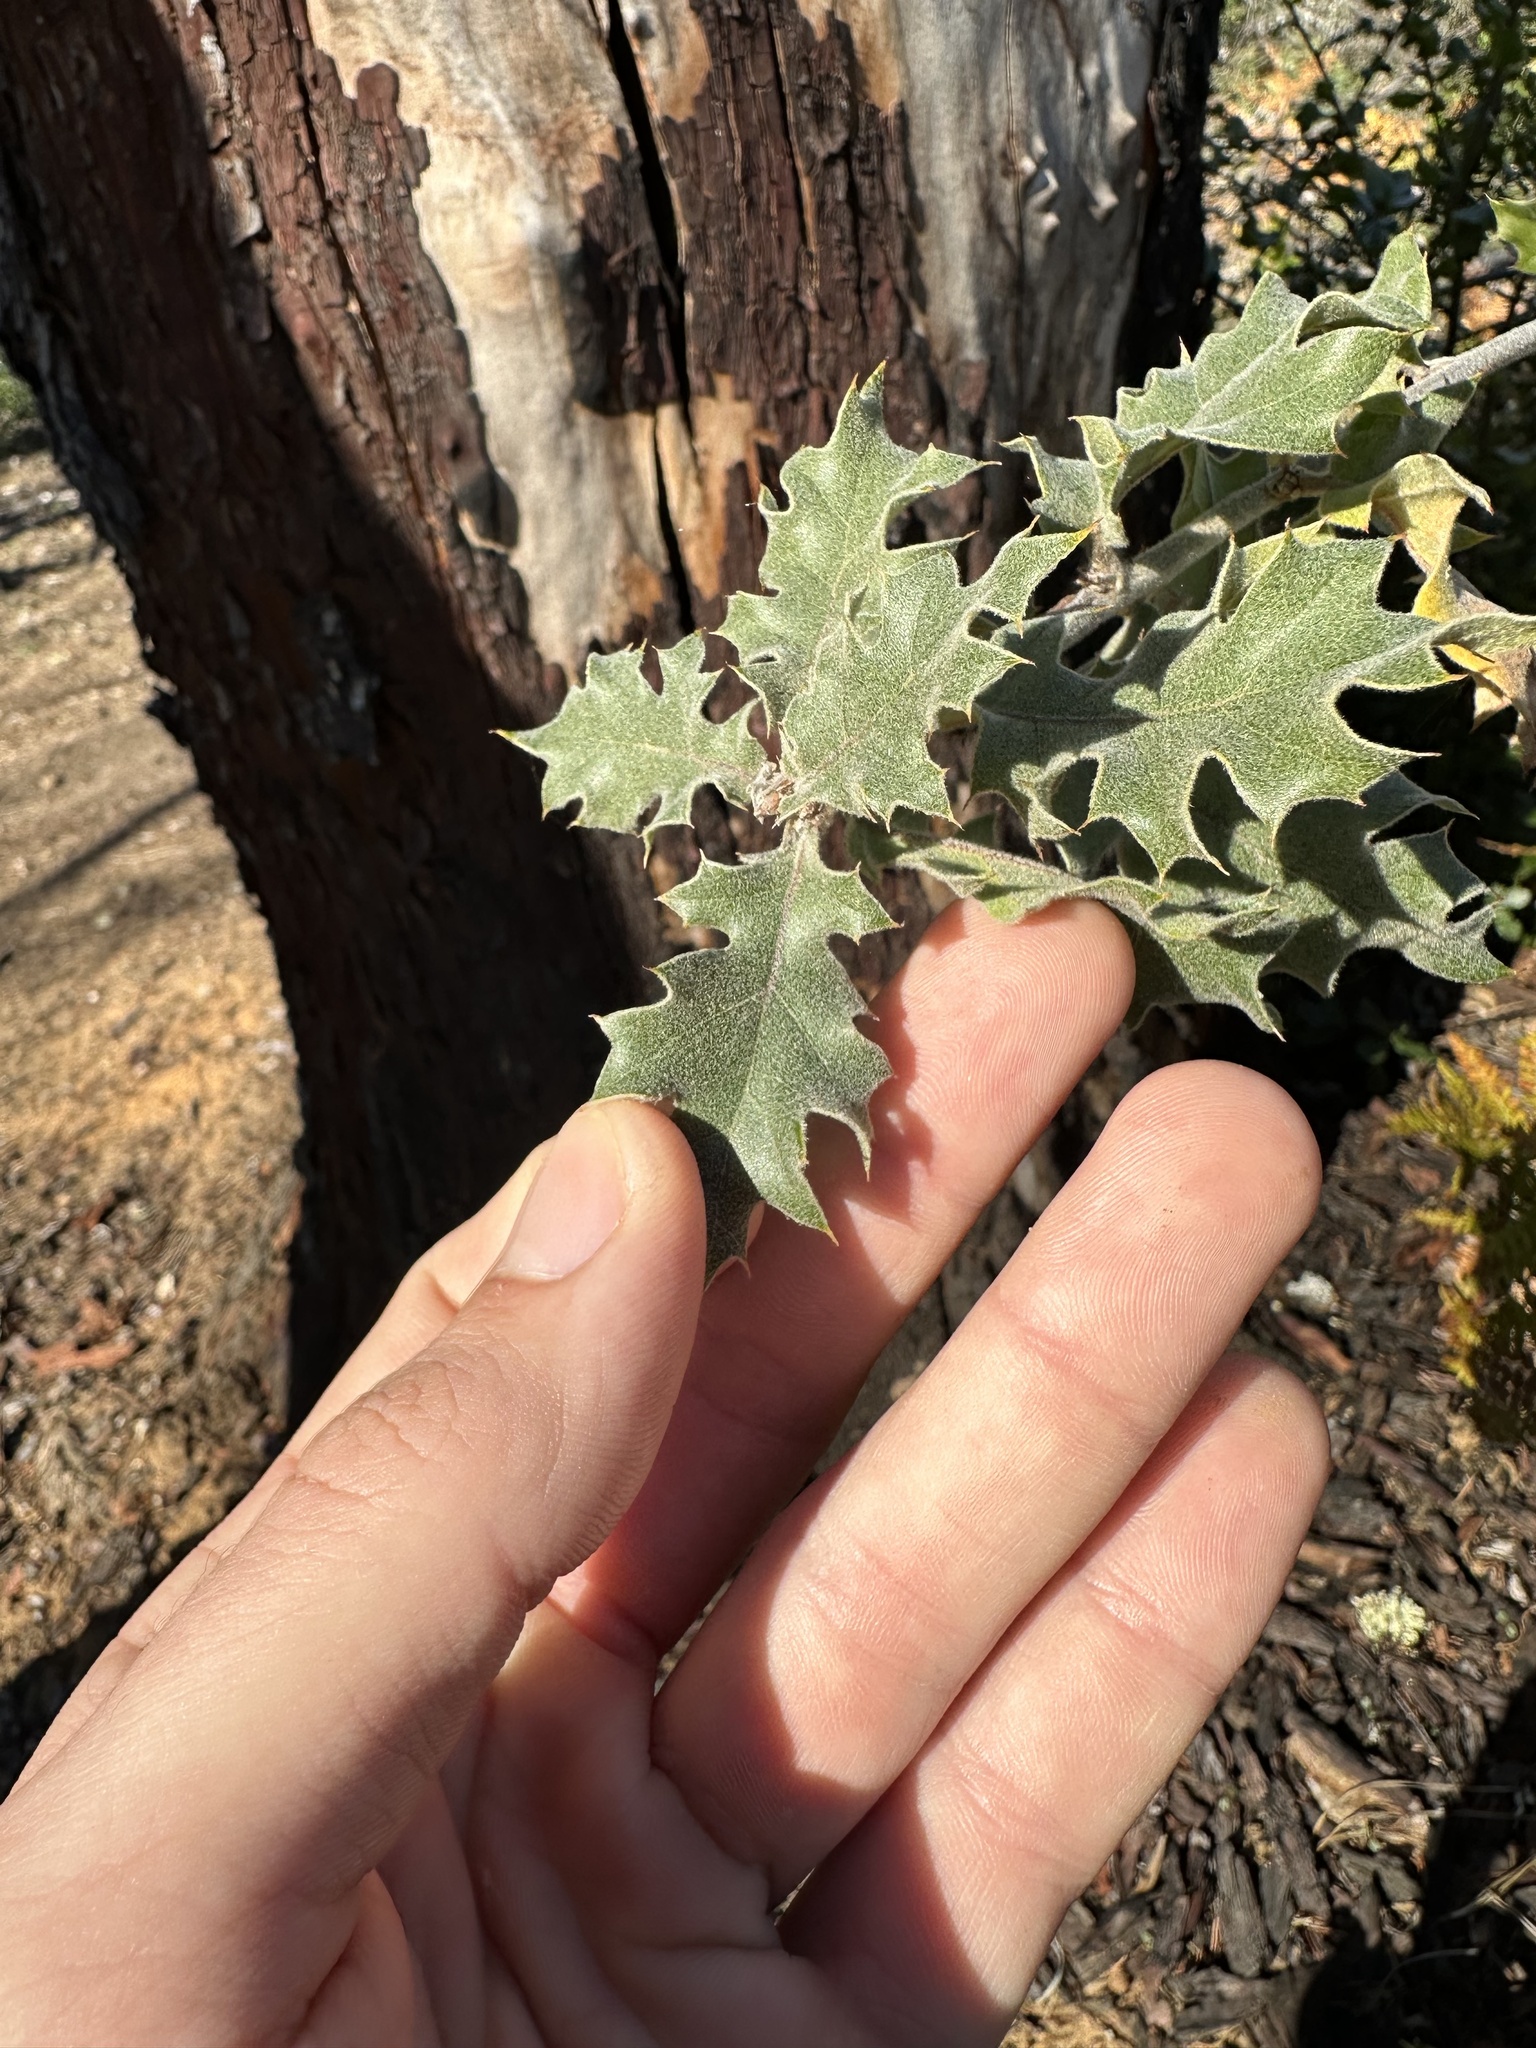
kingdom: Plantae
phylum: Tracheophyta
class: Magnoliopsida
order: Fagales
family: Fagaceae
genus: Quercus
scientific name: Quercus ganderi
